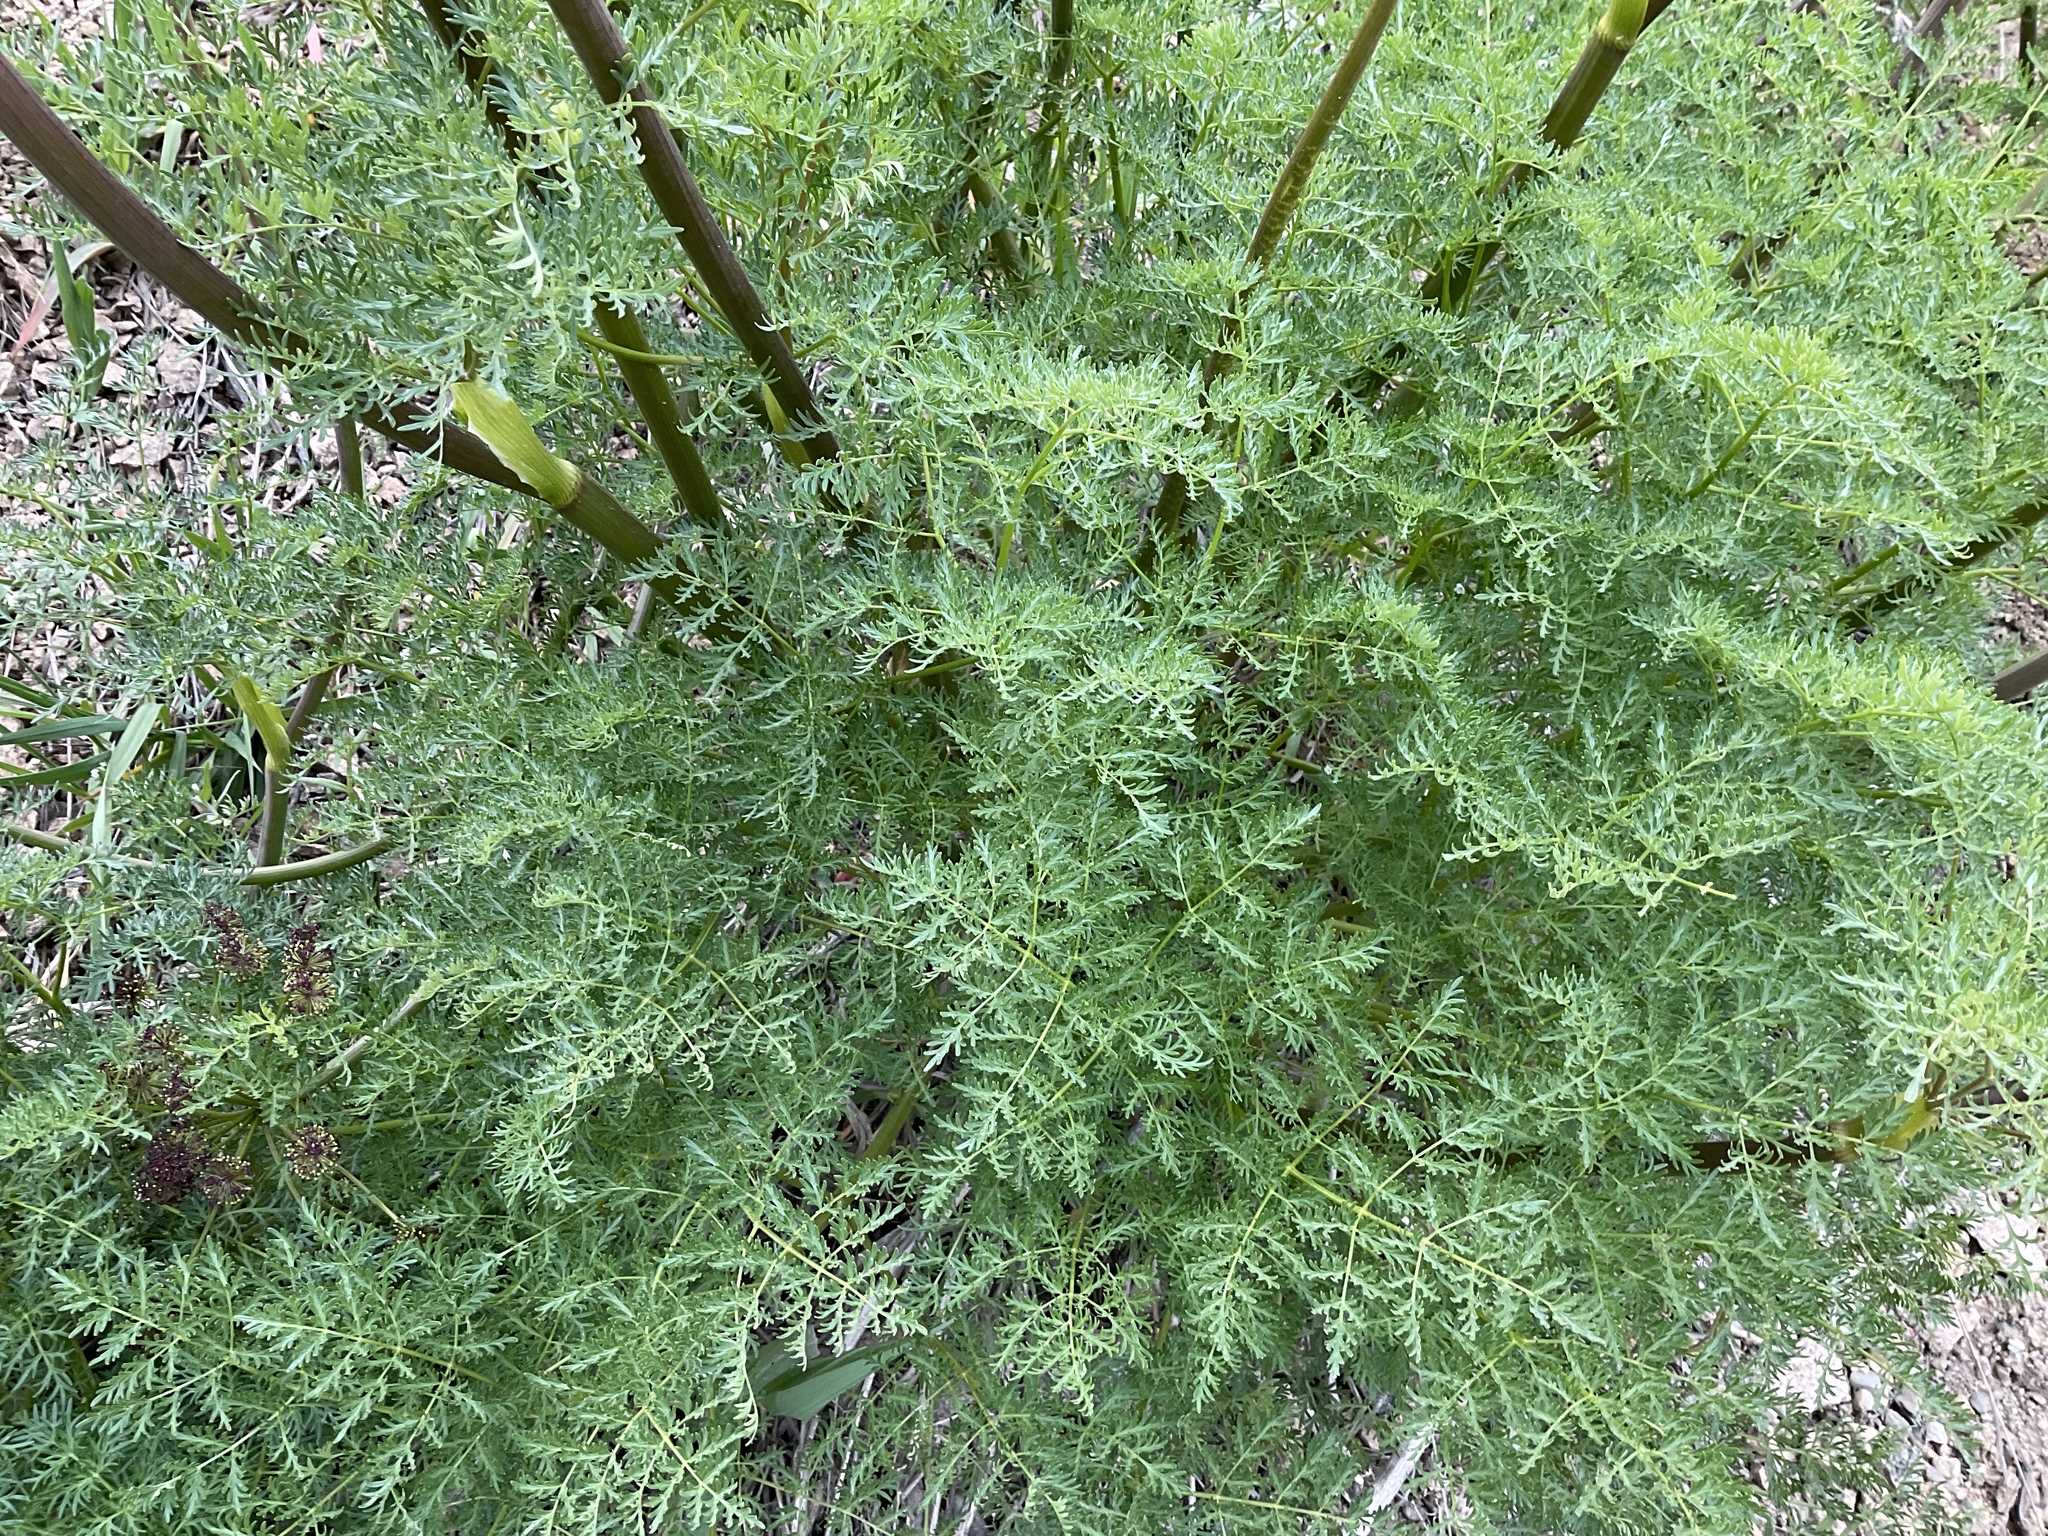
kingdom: Plantae
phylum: Tracheophyta
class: Magnoliopsida
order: Apiales
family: Apiaceae
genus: Lomatium
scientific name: Lomatium multifidum
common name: Carrot-leaved biscuitroot
